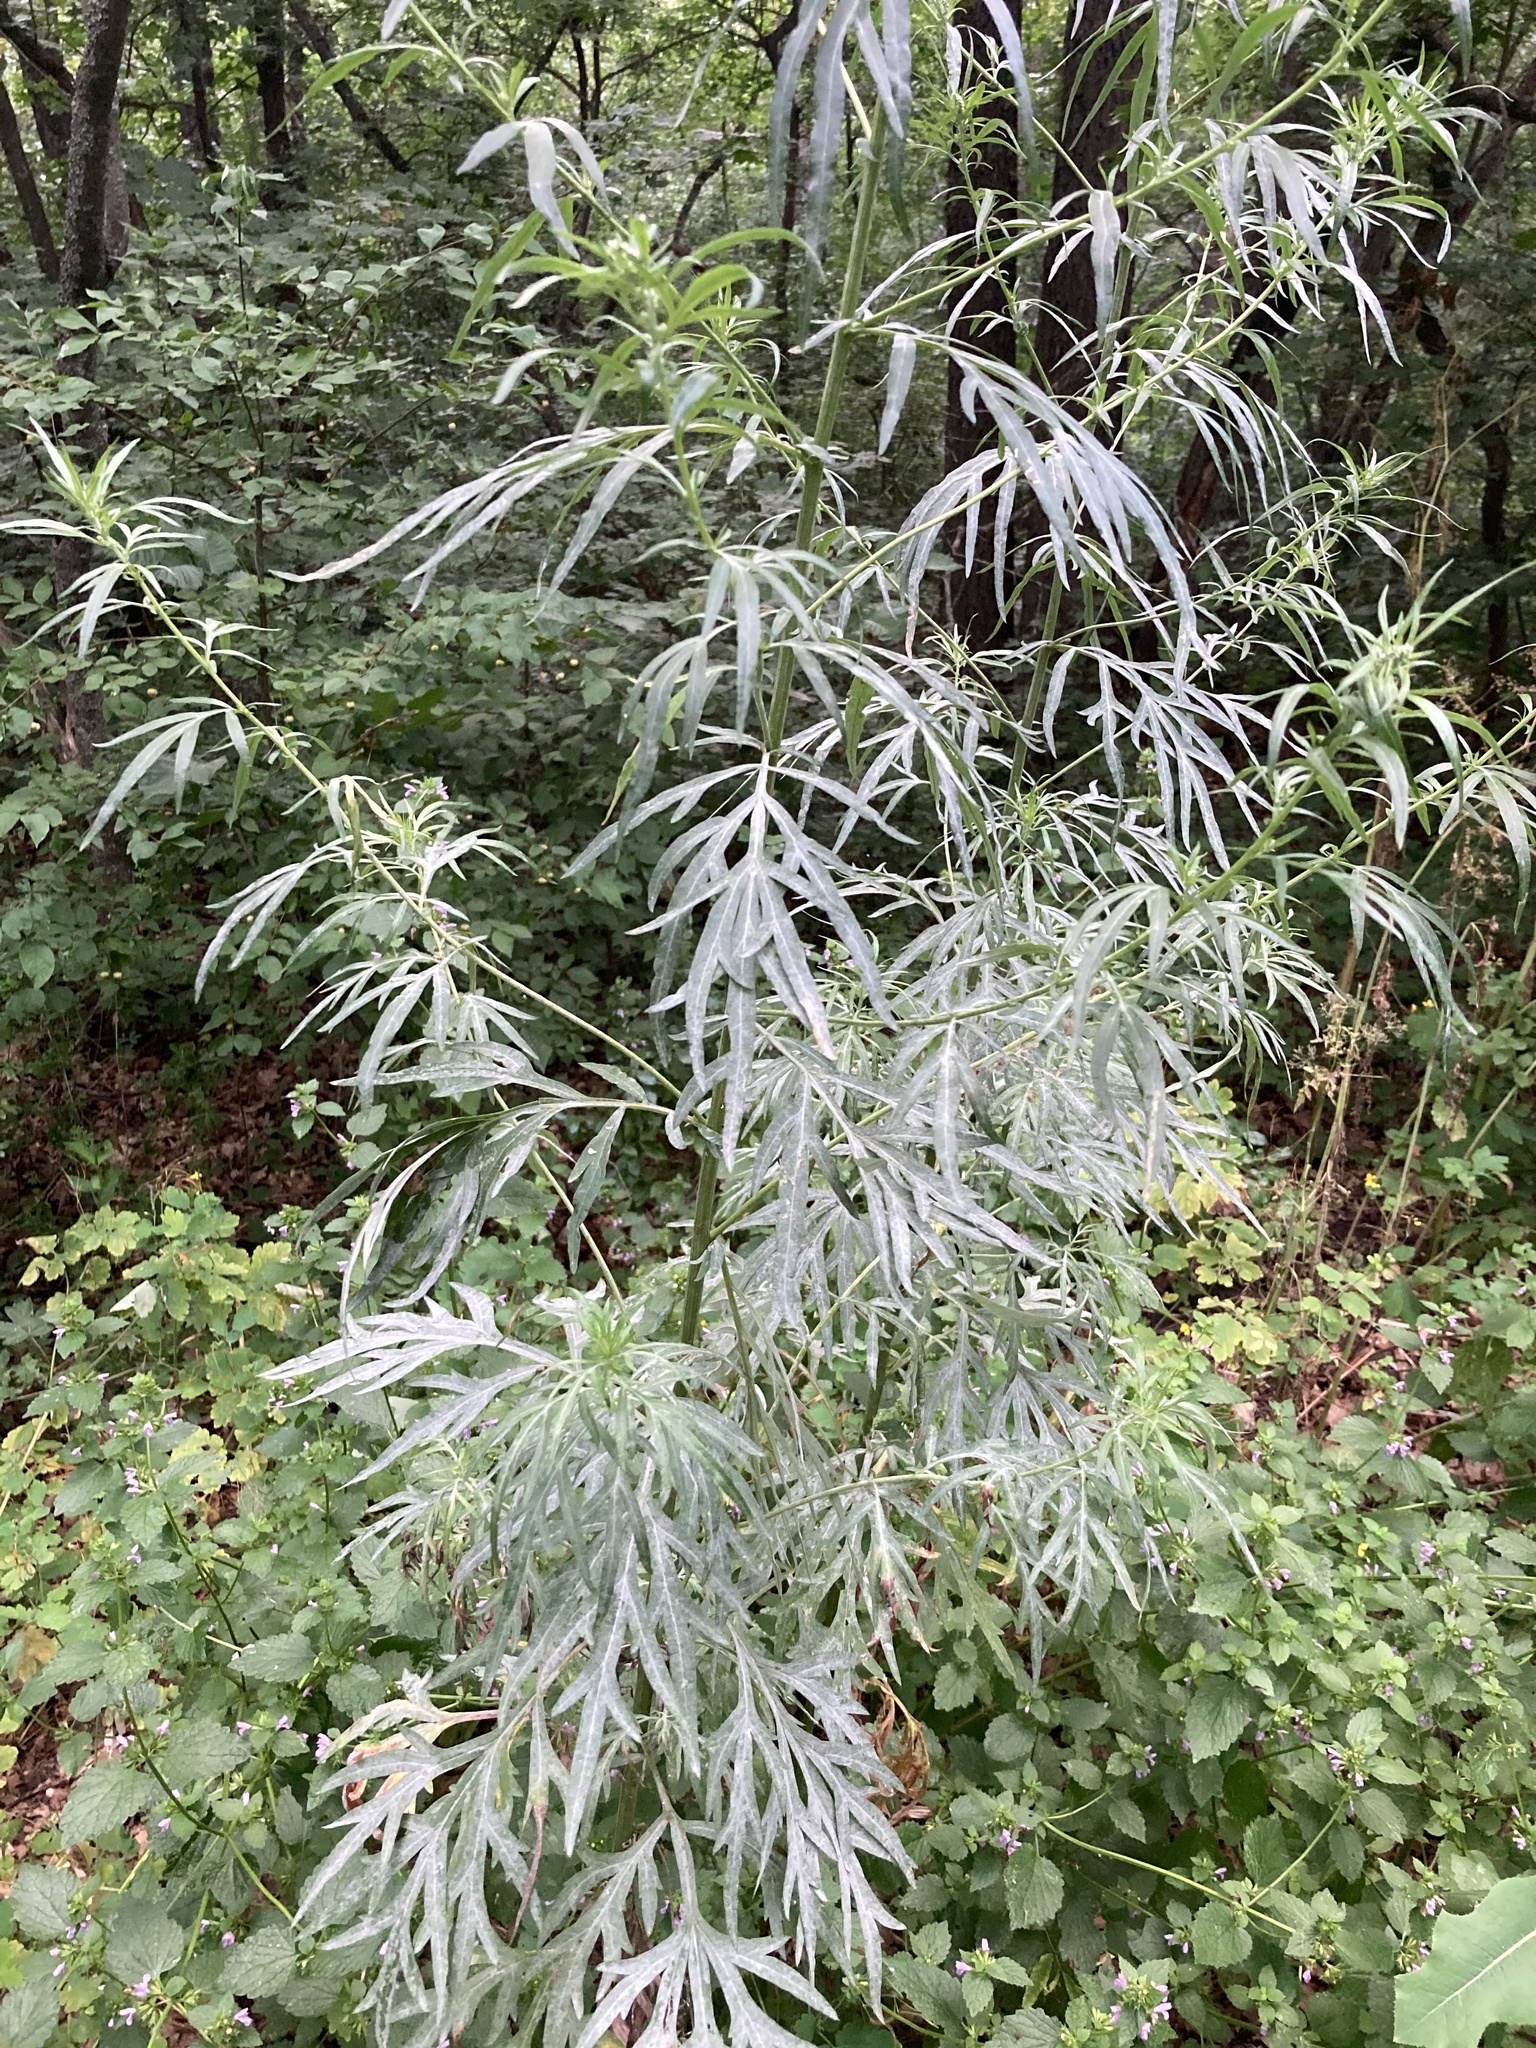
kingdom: Plantae
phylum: Tracheophyta
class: Magnoliopsida
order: Asterales
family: Asteraceae
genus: Artemisia
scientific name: Artemisia vulgaris
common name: Mugwort
